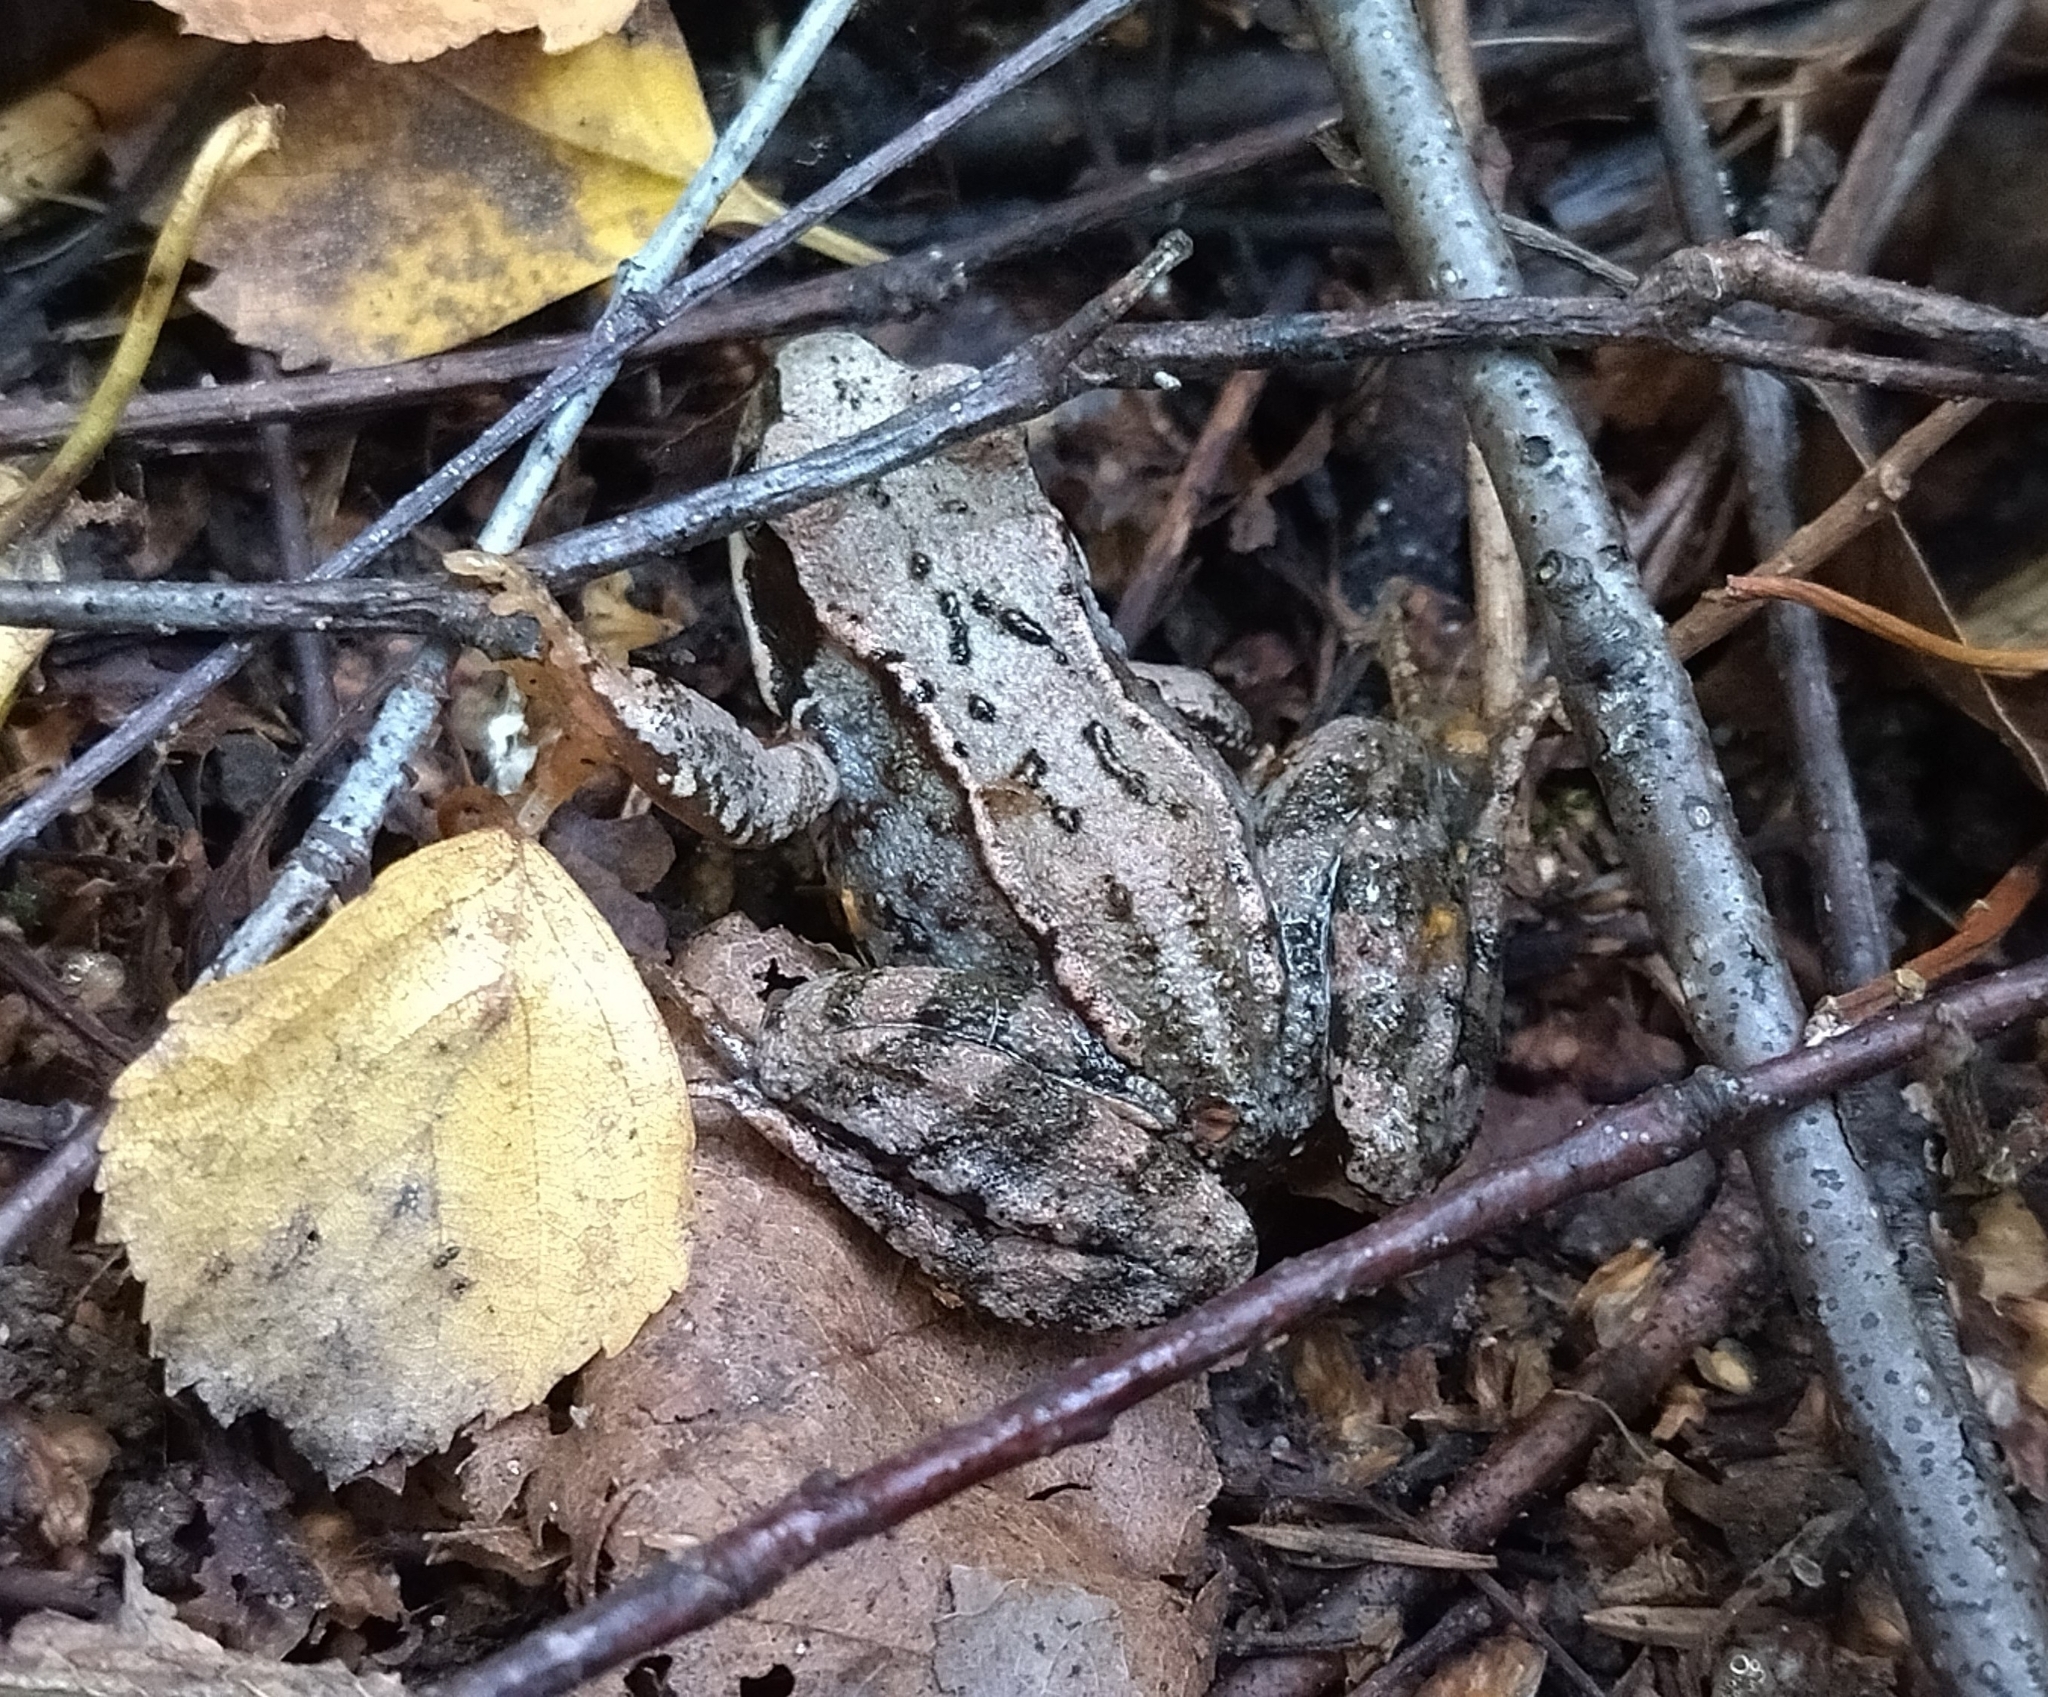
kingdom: Animalia
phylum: Chordata
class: Amphibia
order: Anura
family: Ranidae
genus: Rana
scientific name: Rana temporaria
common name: Common frog
